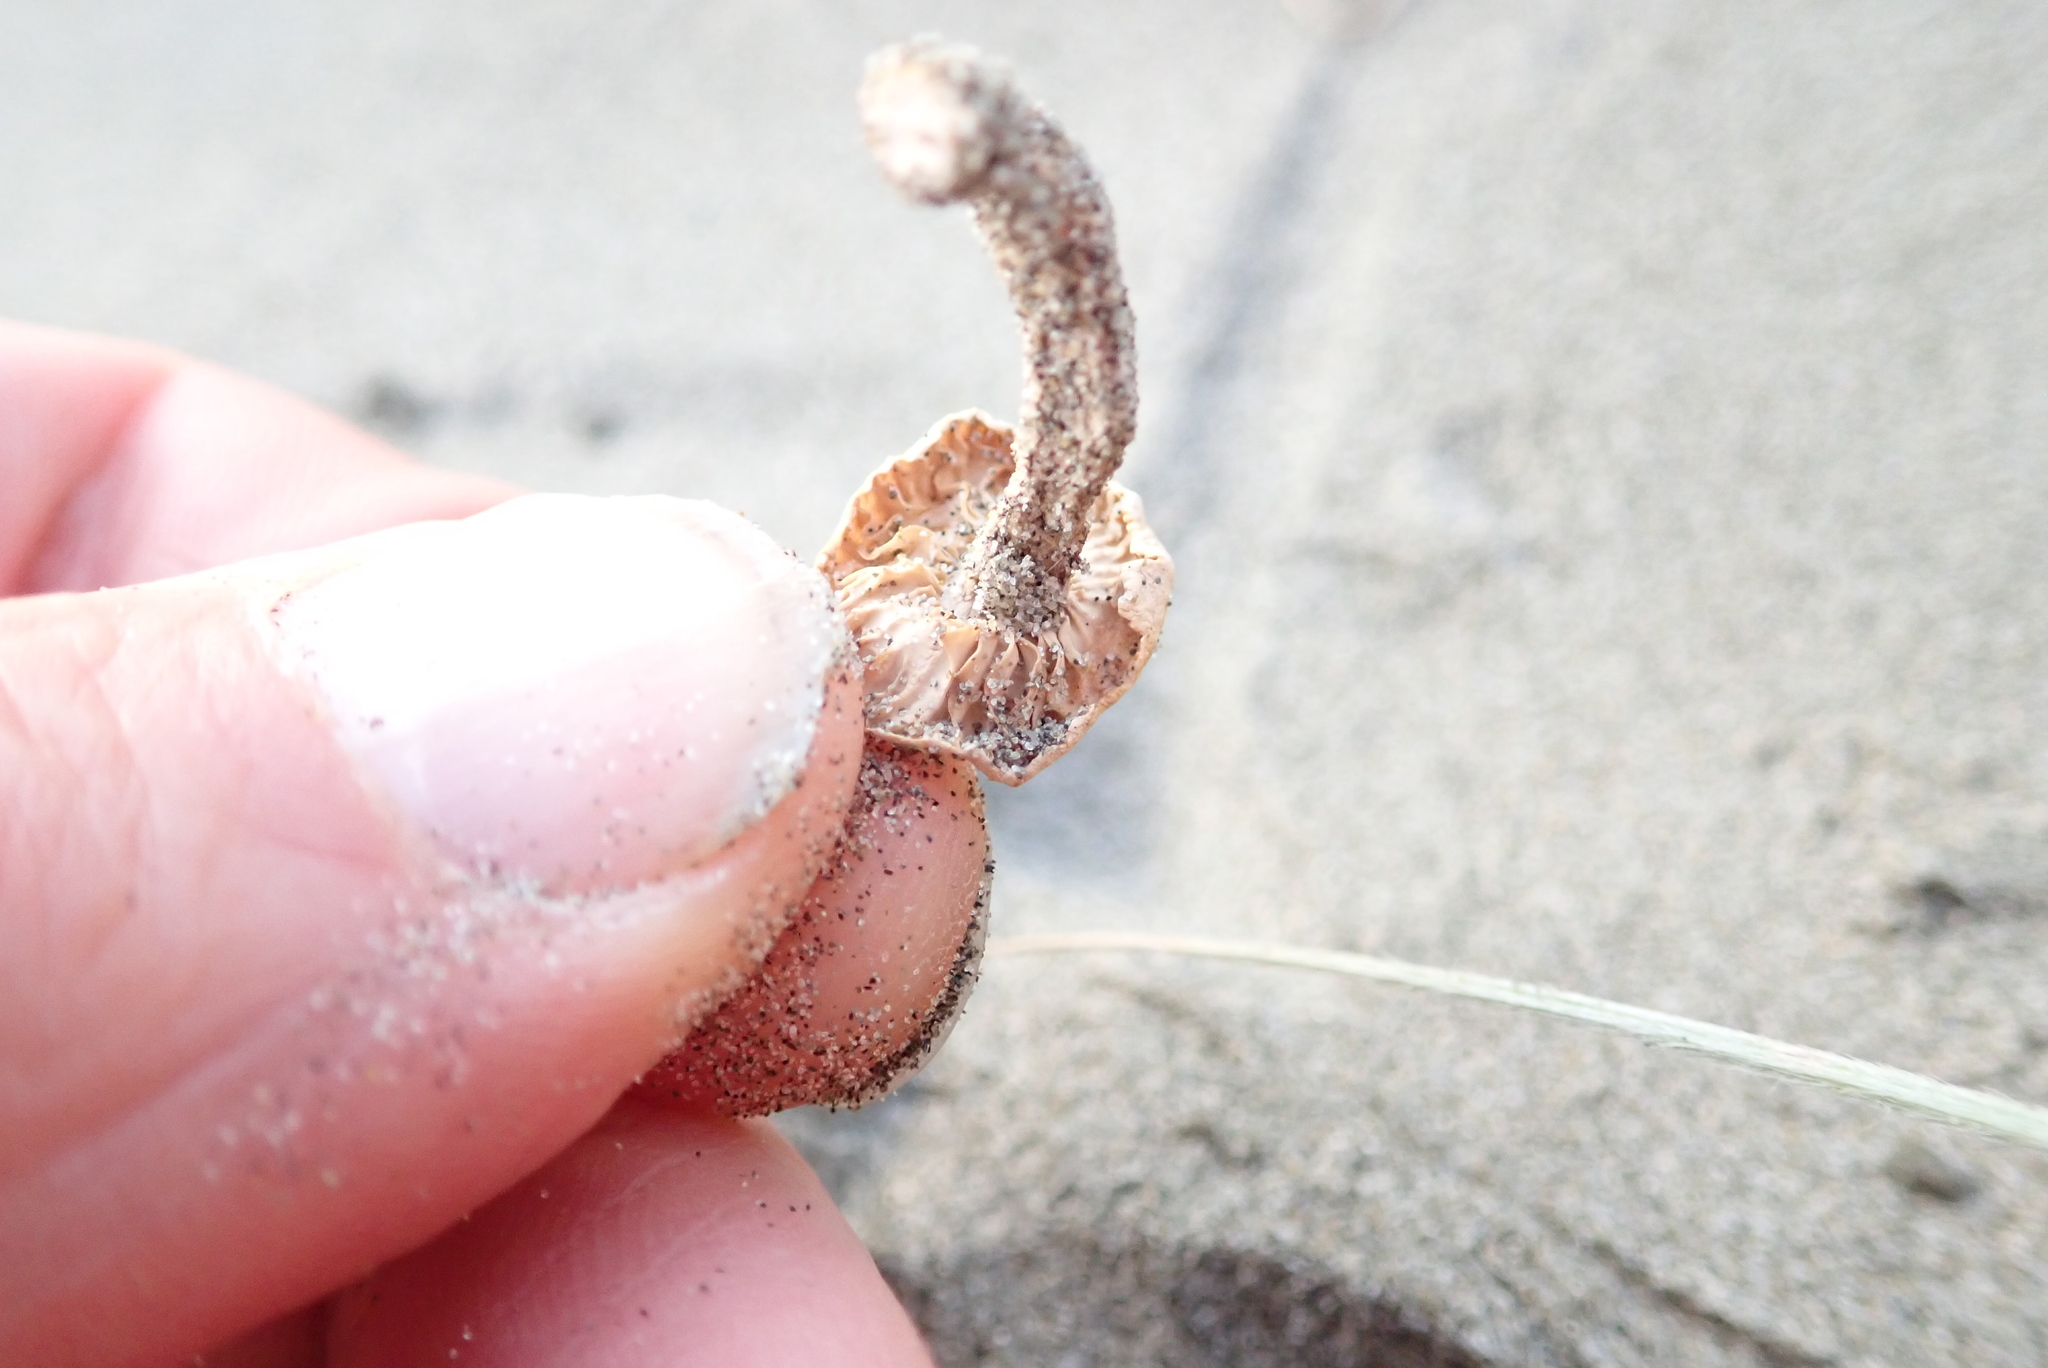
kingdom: Fungi
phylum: Basidiomycota
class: Agaricomycetes
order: Agaricales
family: Marasmiaceae
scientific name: Marasmiaceae
